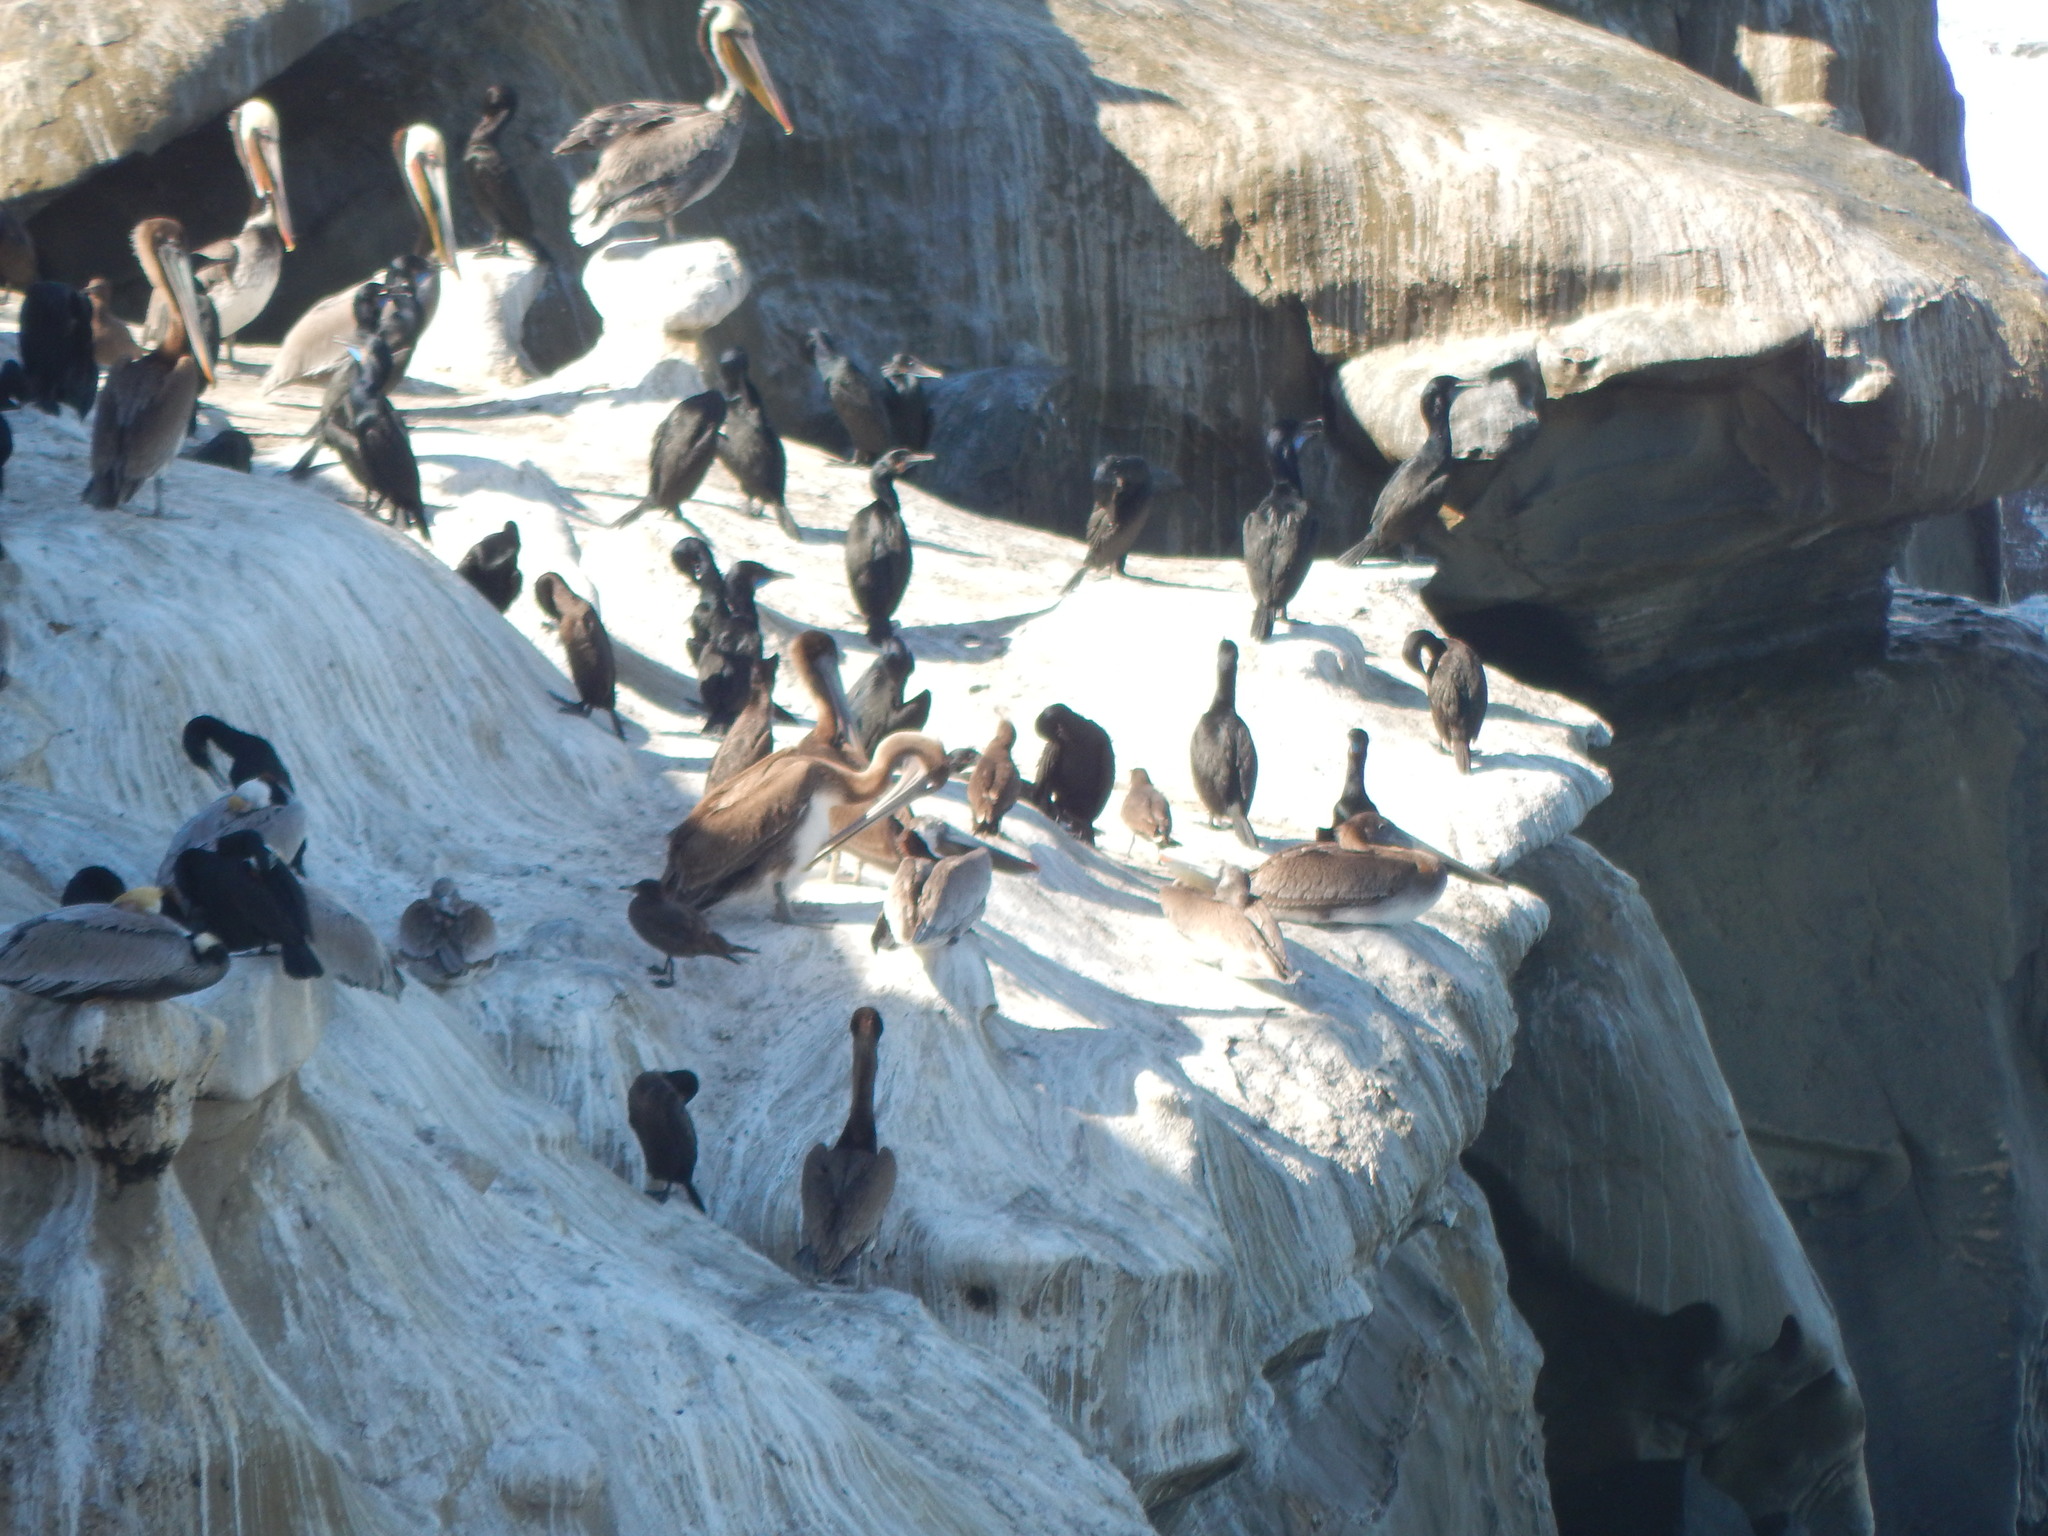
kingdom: Animalia
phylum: Chordata
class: Aves
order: Pelecaniformes
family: Pelecanidae
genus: Pelecanus
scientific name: Pelecanus occidentalis
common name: Brown pelican
